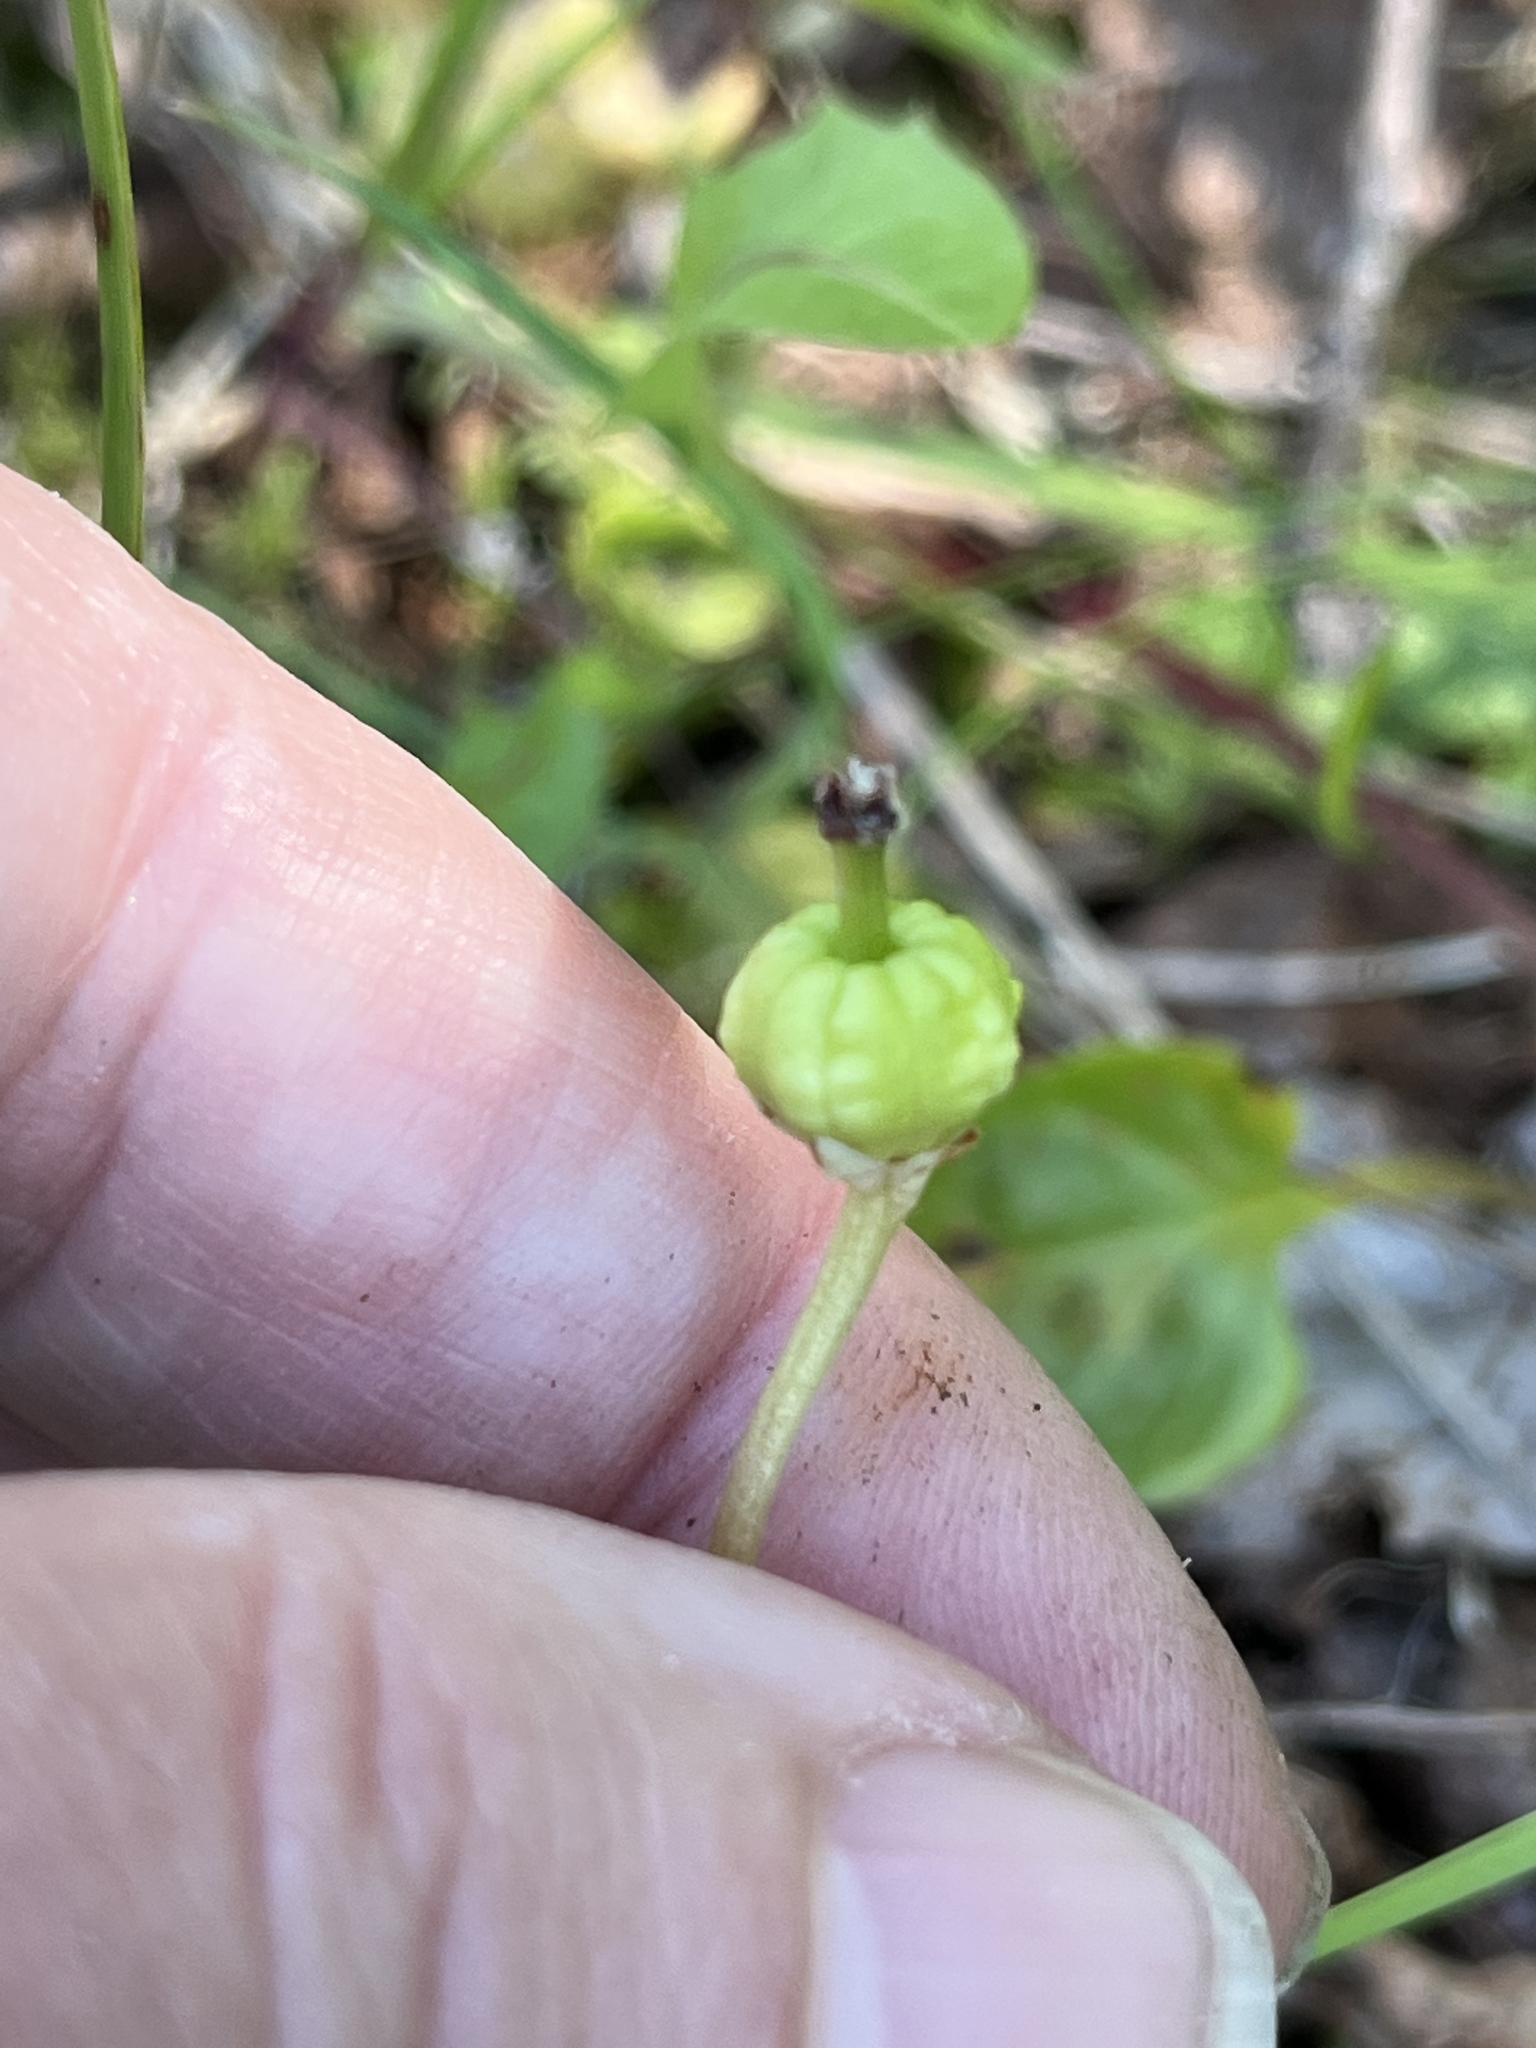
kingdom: Plantae
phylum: Tracheophyta
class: Magnoliopsida
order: Ericales
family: Ericaceae
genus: Moneses
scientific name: Moneses uniflora
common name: One-flowered wintergreen
